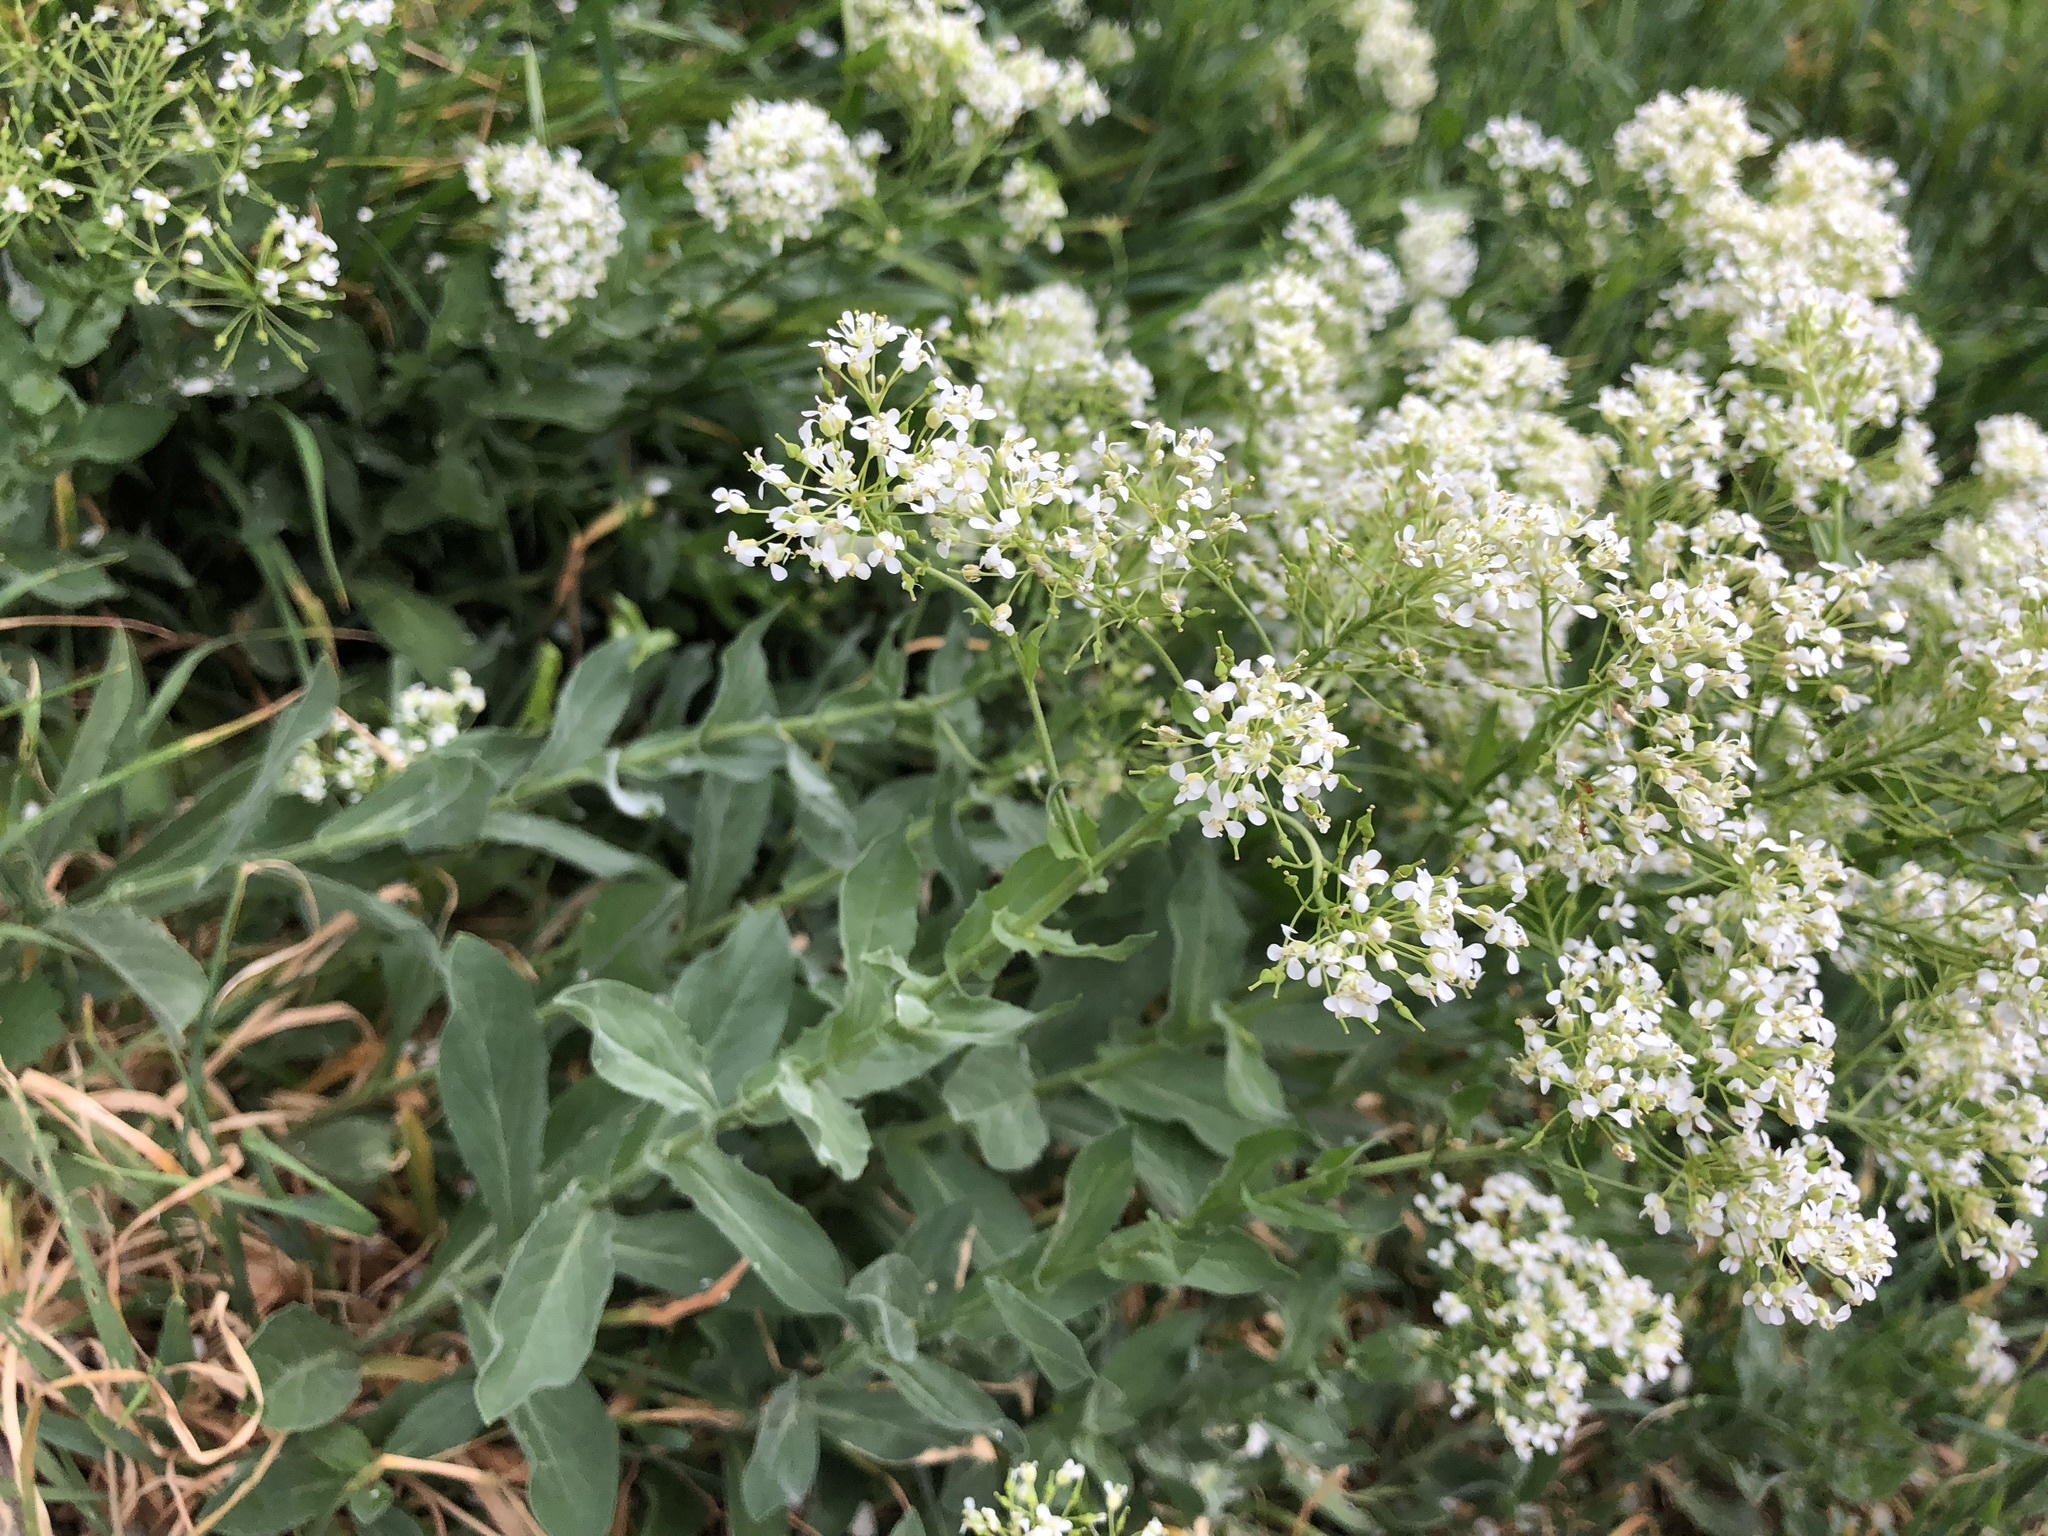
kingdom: Plantae
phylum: Tracheophyta
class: Magnoliopsida
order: Brassicales
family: Brassicaceae
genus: Lepidium
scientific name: Lepidium draba
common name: Hoary cress
